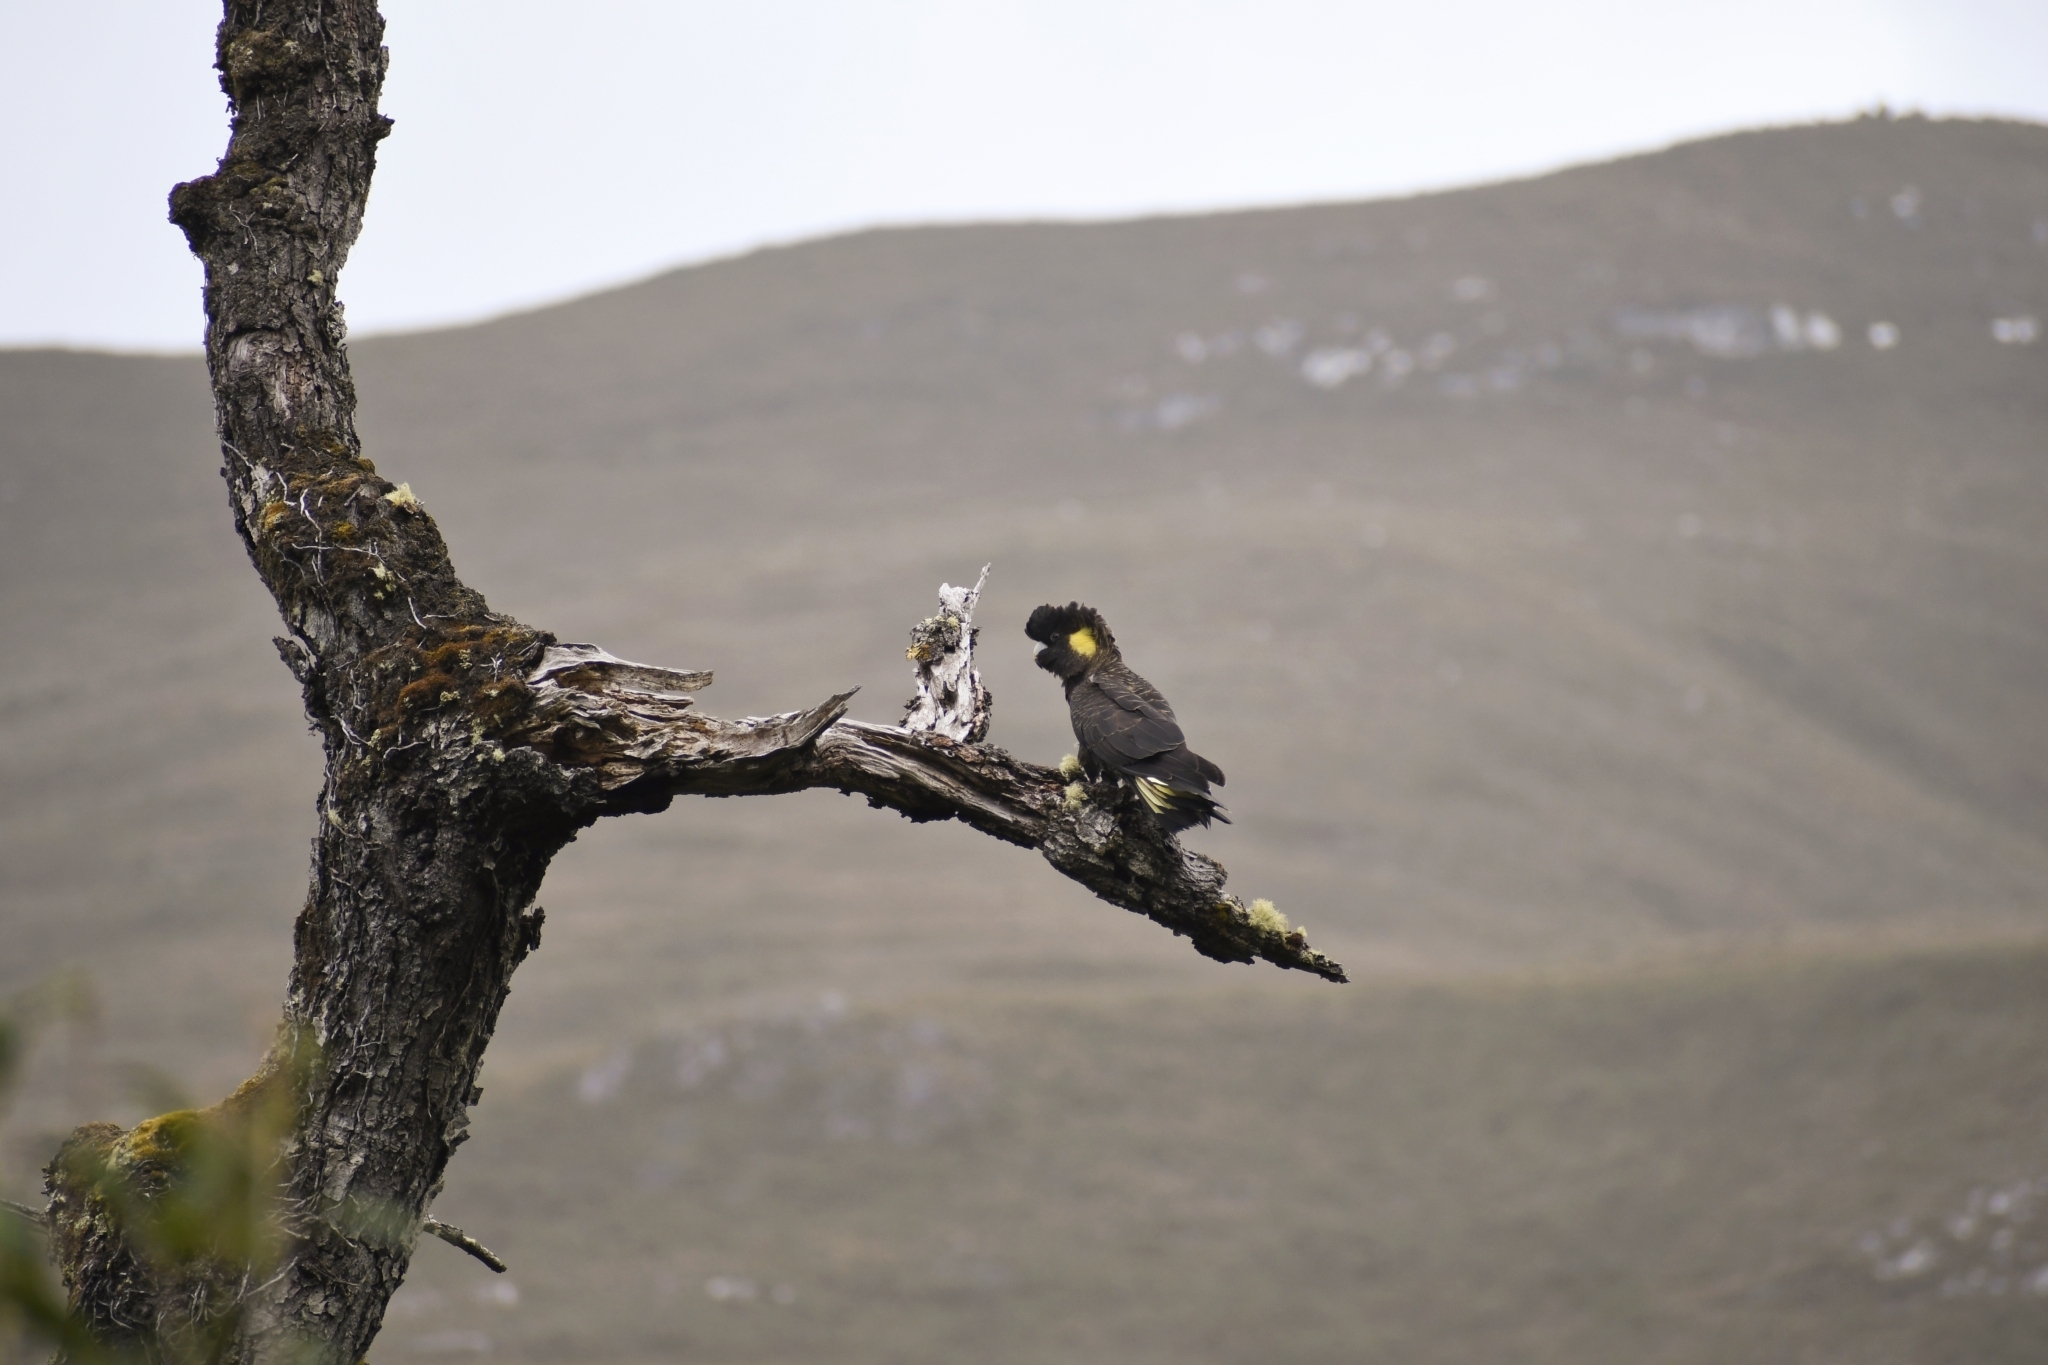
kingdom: Animalia
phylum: Chordata
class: Aves
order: Psittaciformes
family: Cacatuidae
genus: Zanda
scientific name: Zanda funerea
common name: Yellow-tailed black-cockatoo
